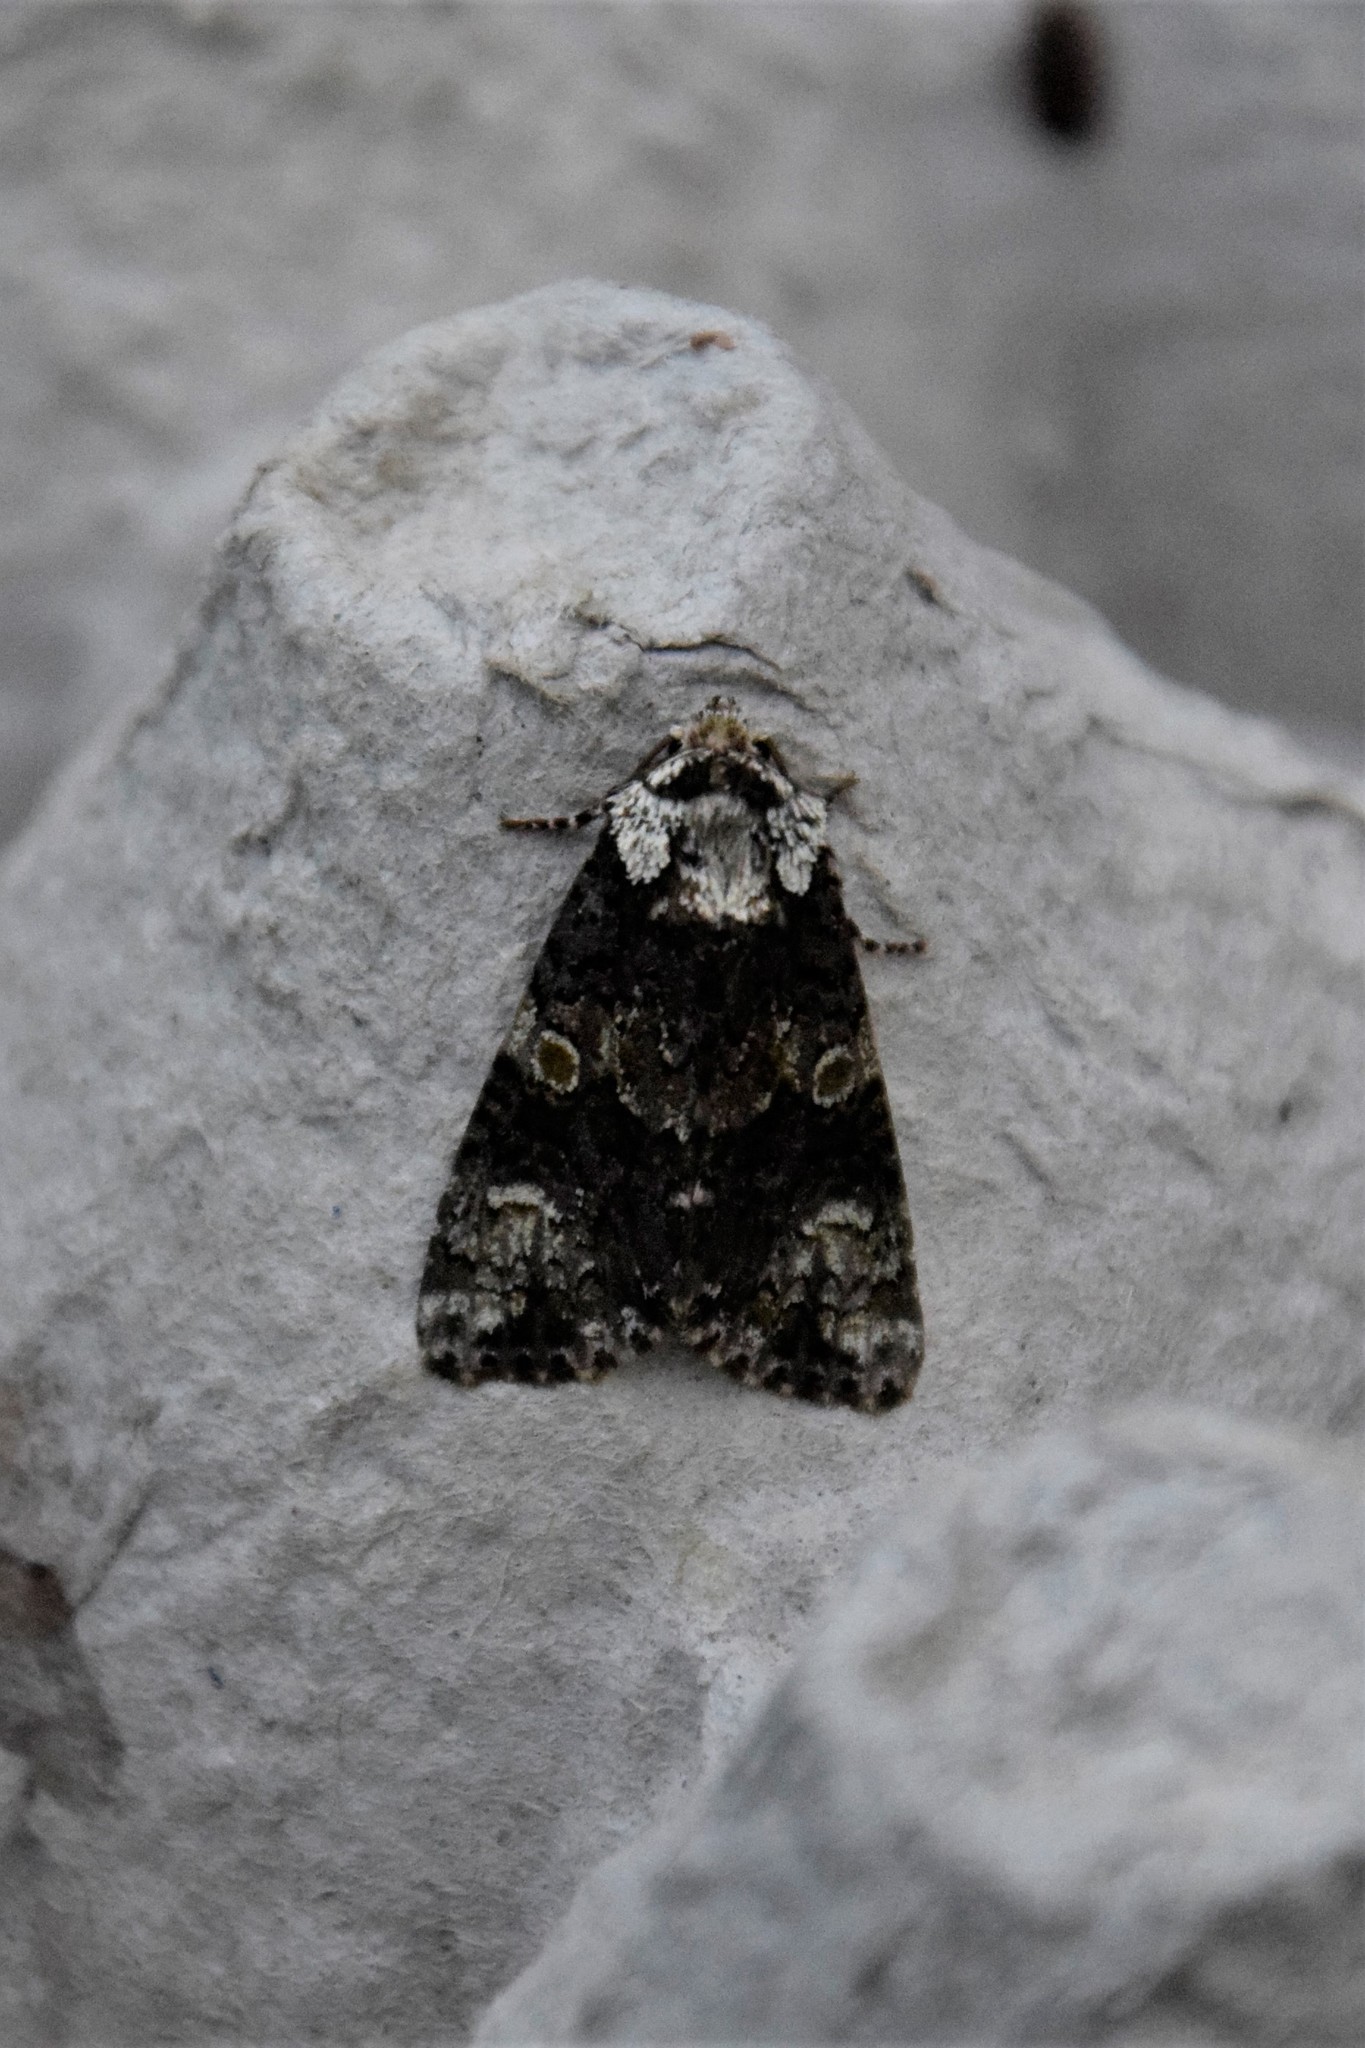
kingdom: Animalia
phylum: Arthropoda
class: Insecta
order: Lepidoptera
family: Noctuidae
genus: Craniophora
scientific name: Craniophora ligustri
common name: Coronet
